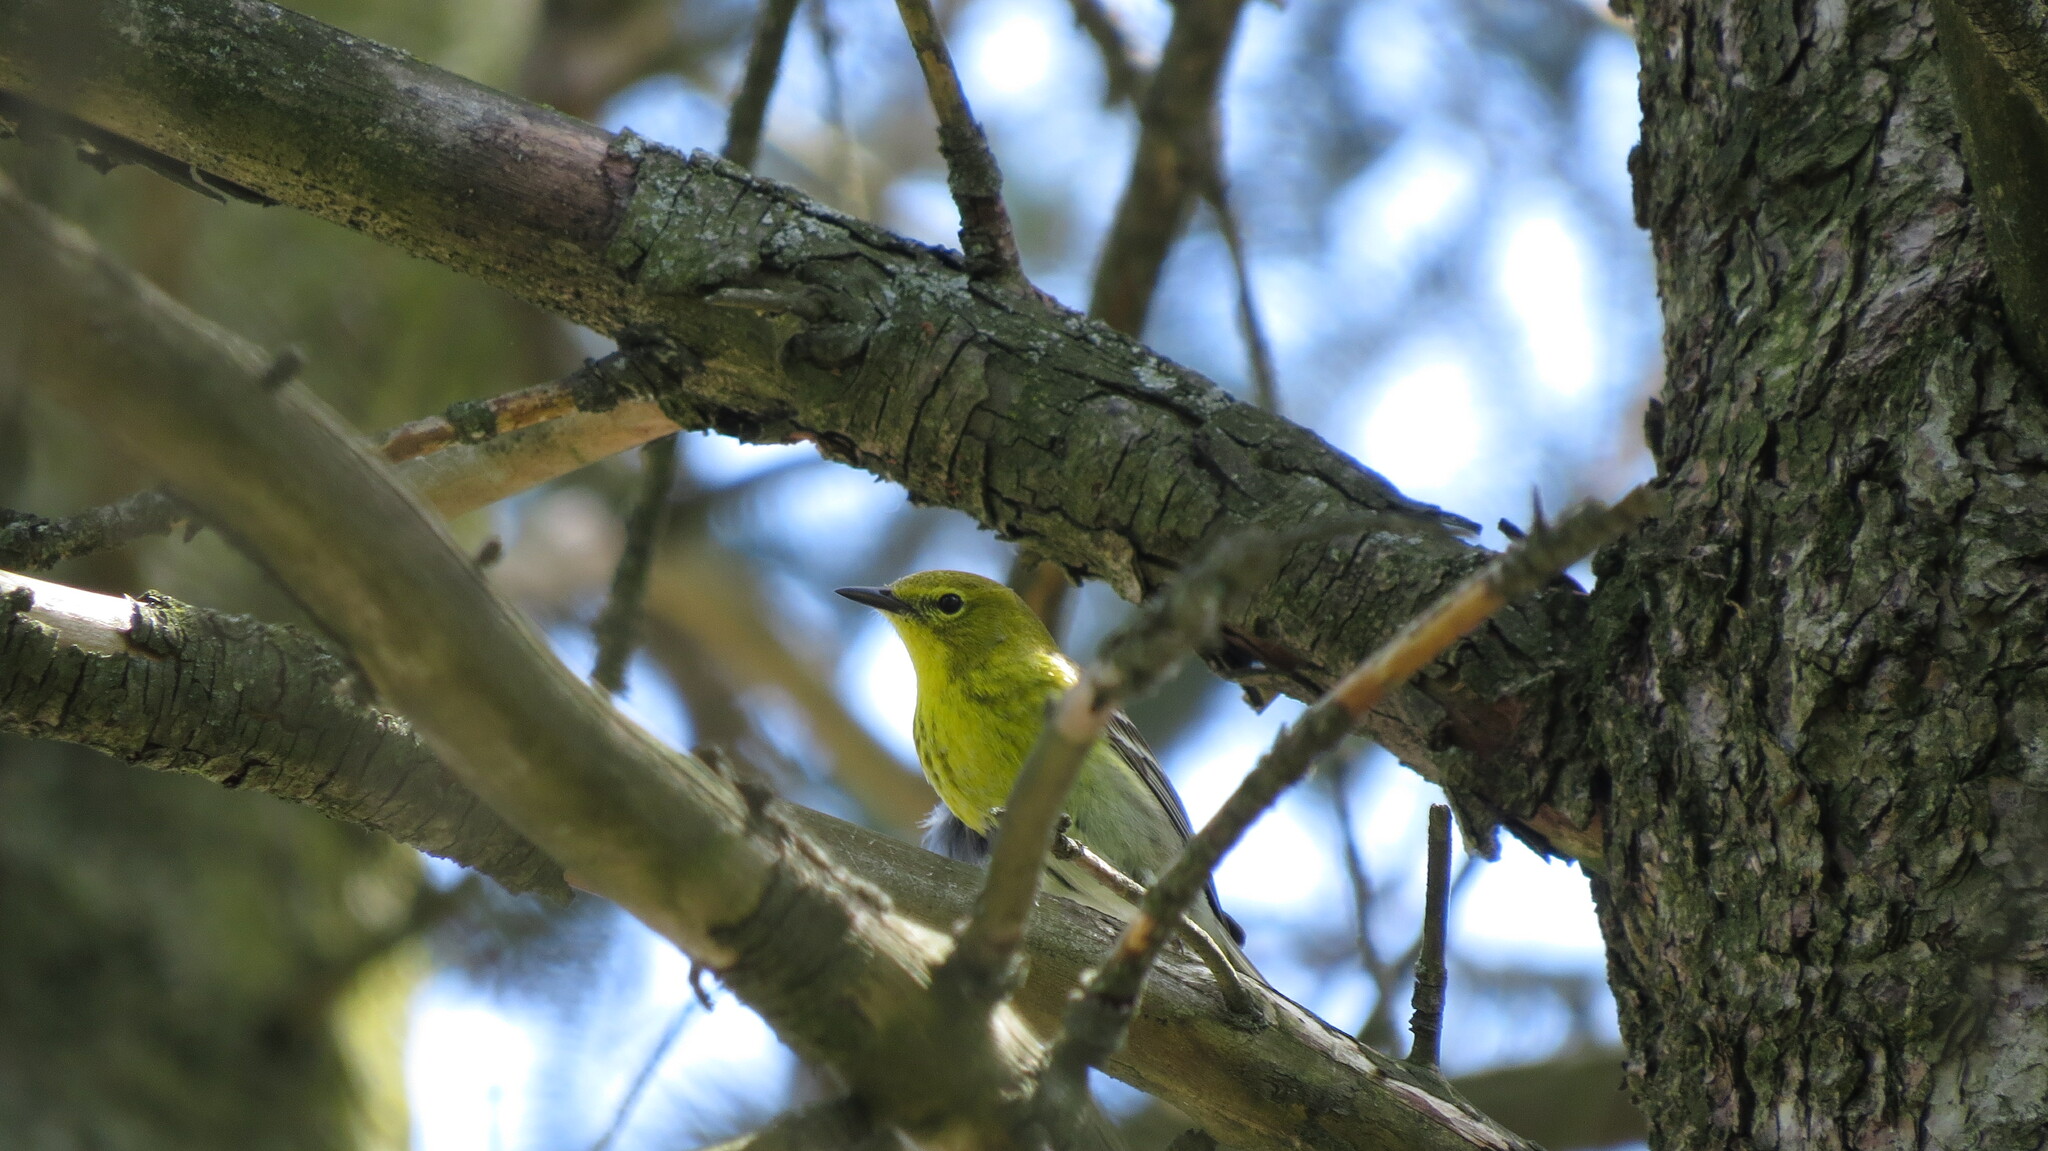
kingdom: Animalia
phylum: Chordata
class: Aves
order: Passeriformes
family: Parulidae
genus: Setophaga
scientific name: Setophaga pinus
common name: Pine warbler
